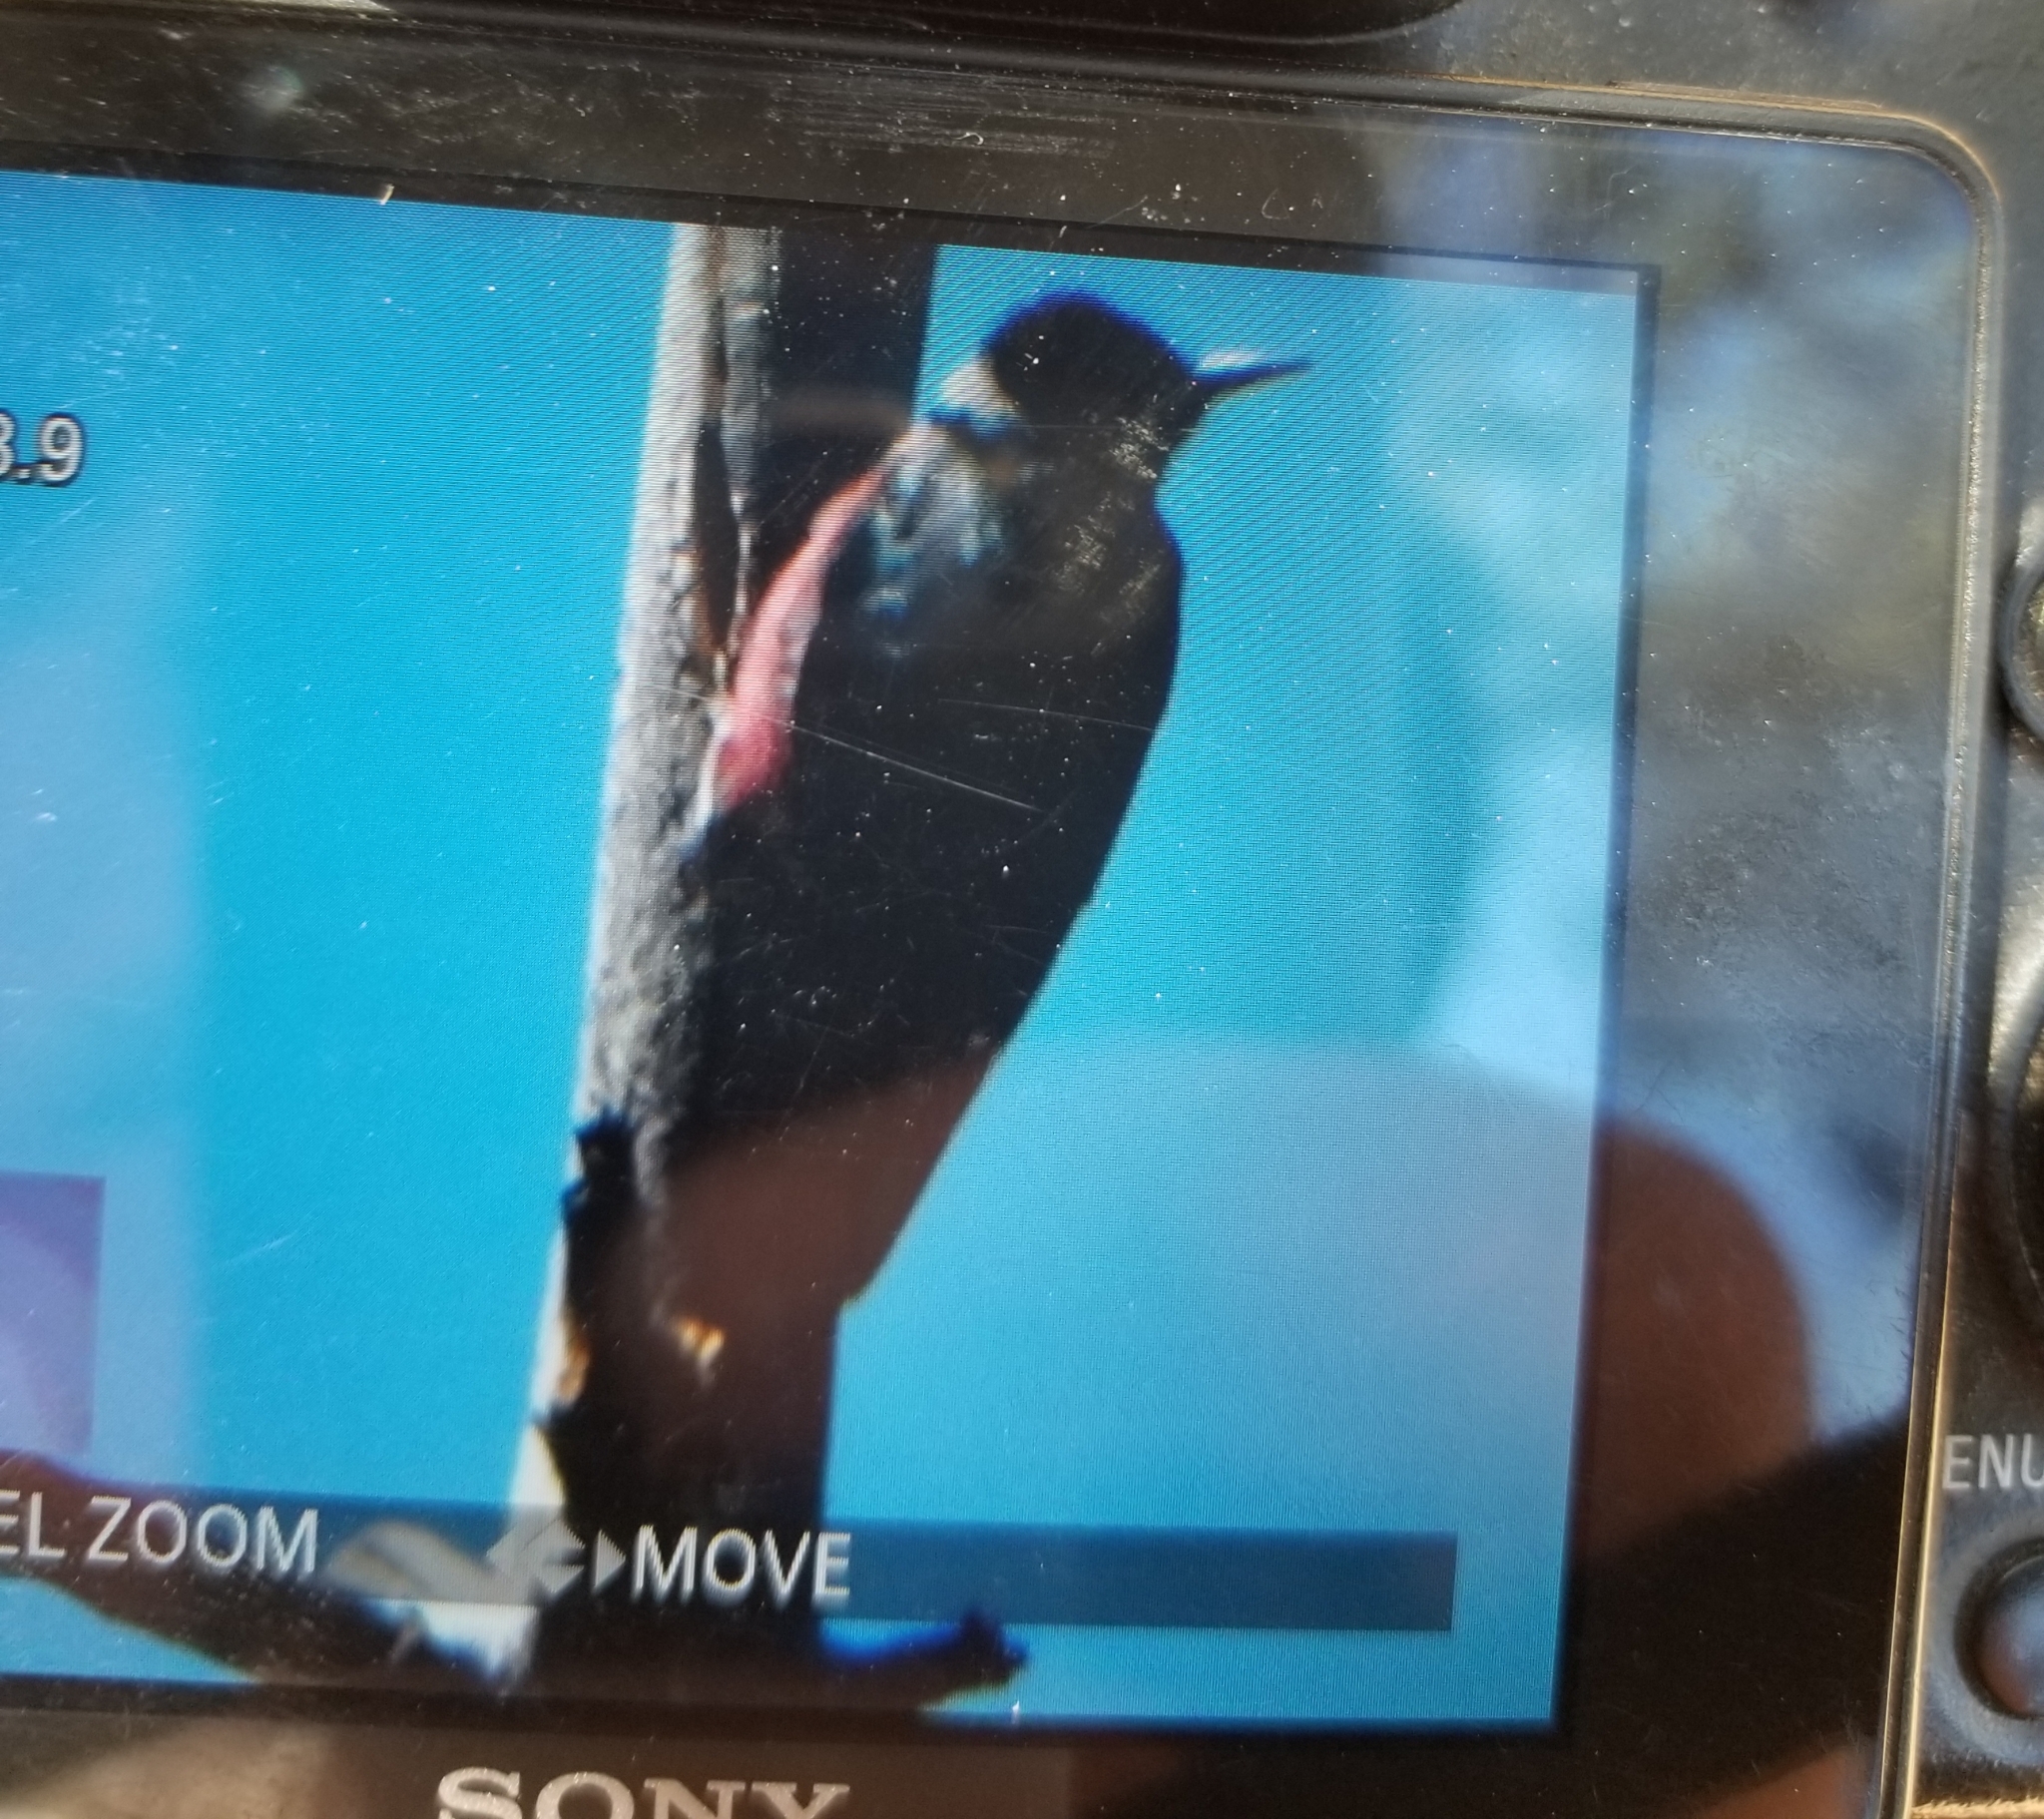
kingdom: Animalia
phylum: Chordata
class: Aves
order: Piciformes
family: Picidae
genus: Melanerpes
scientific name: Melanerpes lewis
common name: Lewis's woodpecker
